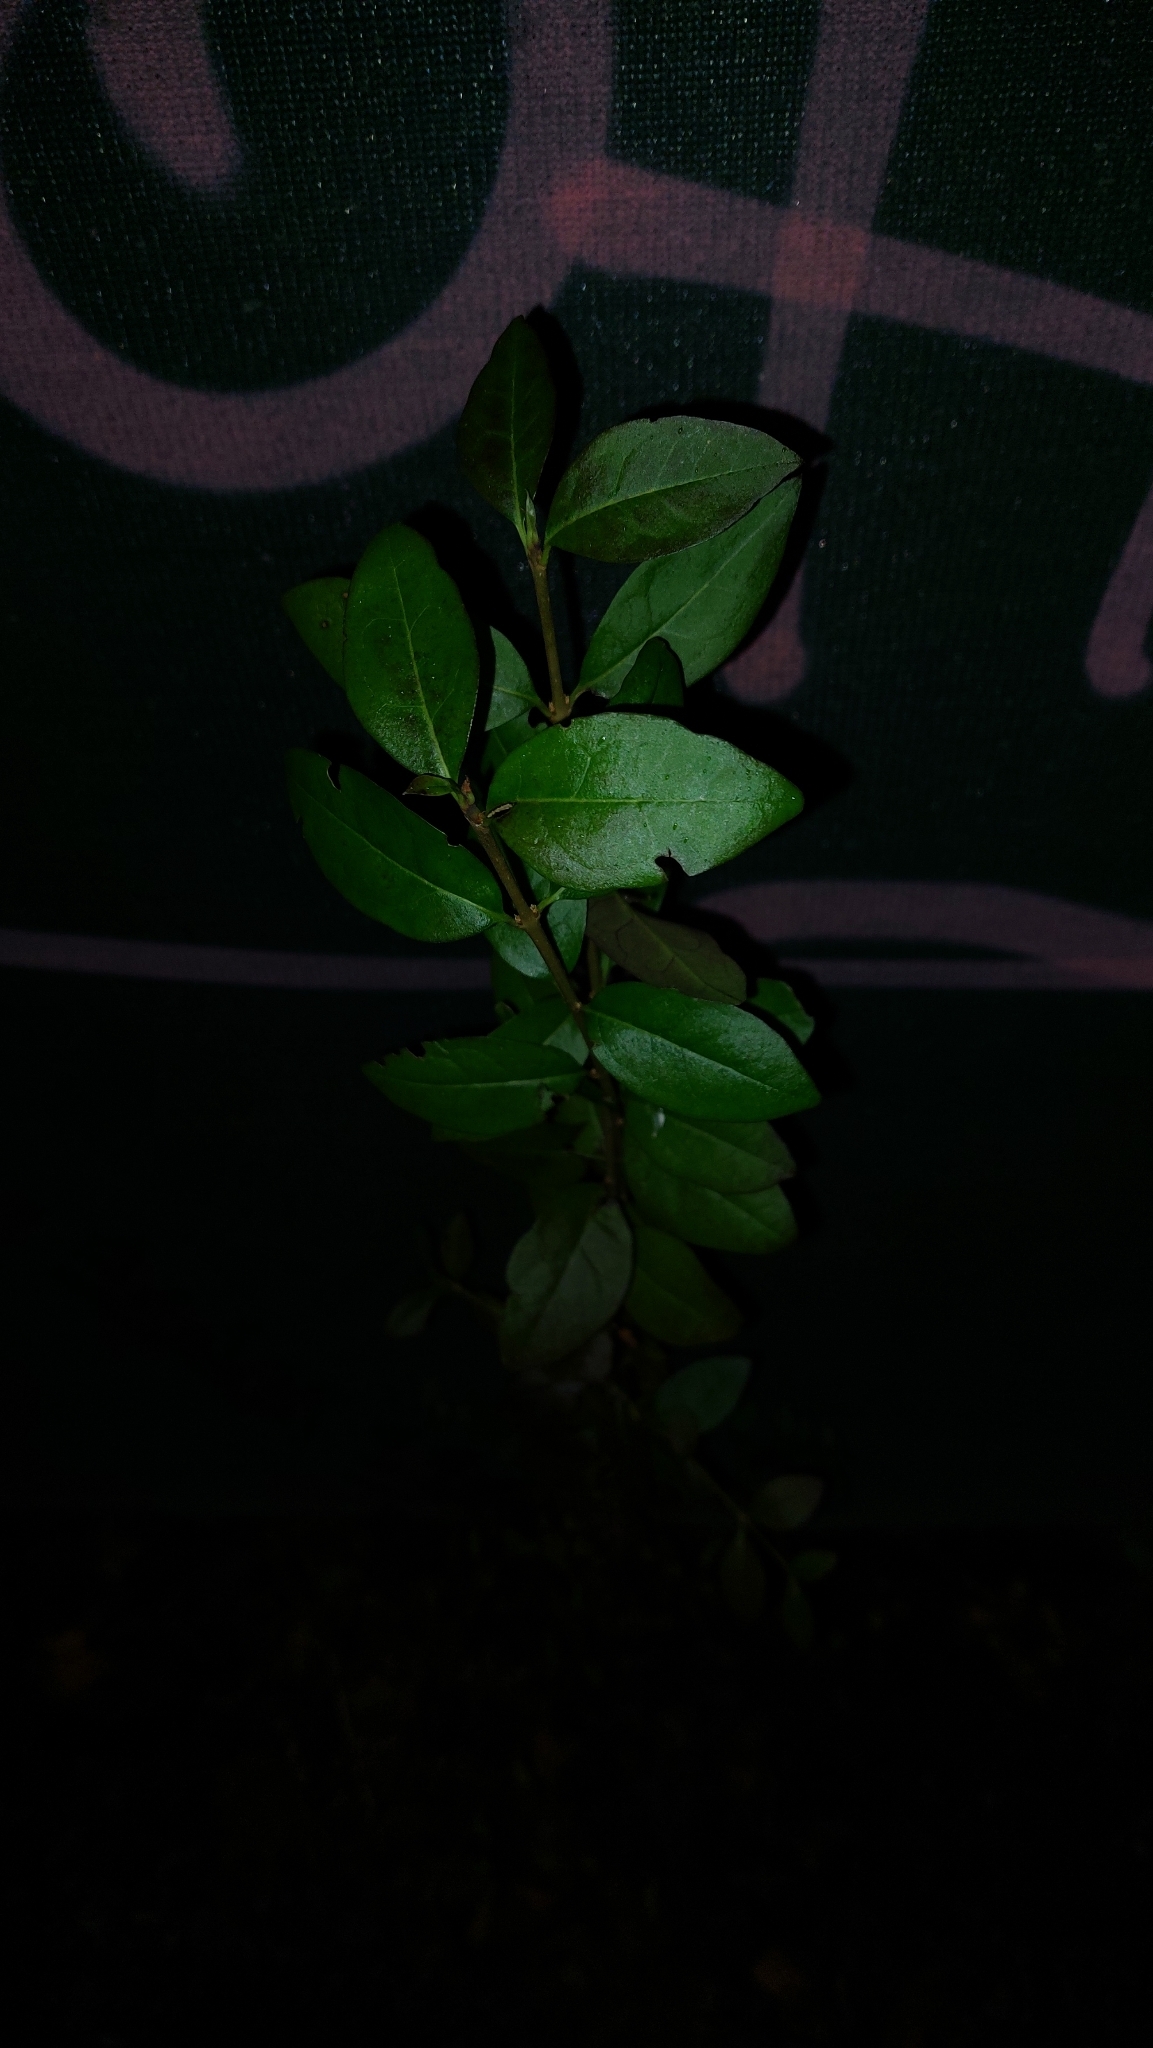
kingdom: Plantae
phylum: Tracheophyta
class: Magnoliopsida
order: Lamiales
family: Oleaceae
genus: Ligustrum
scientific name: Ligustrum vulgare
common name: Wild privet
